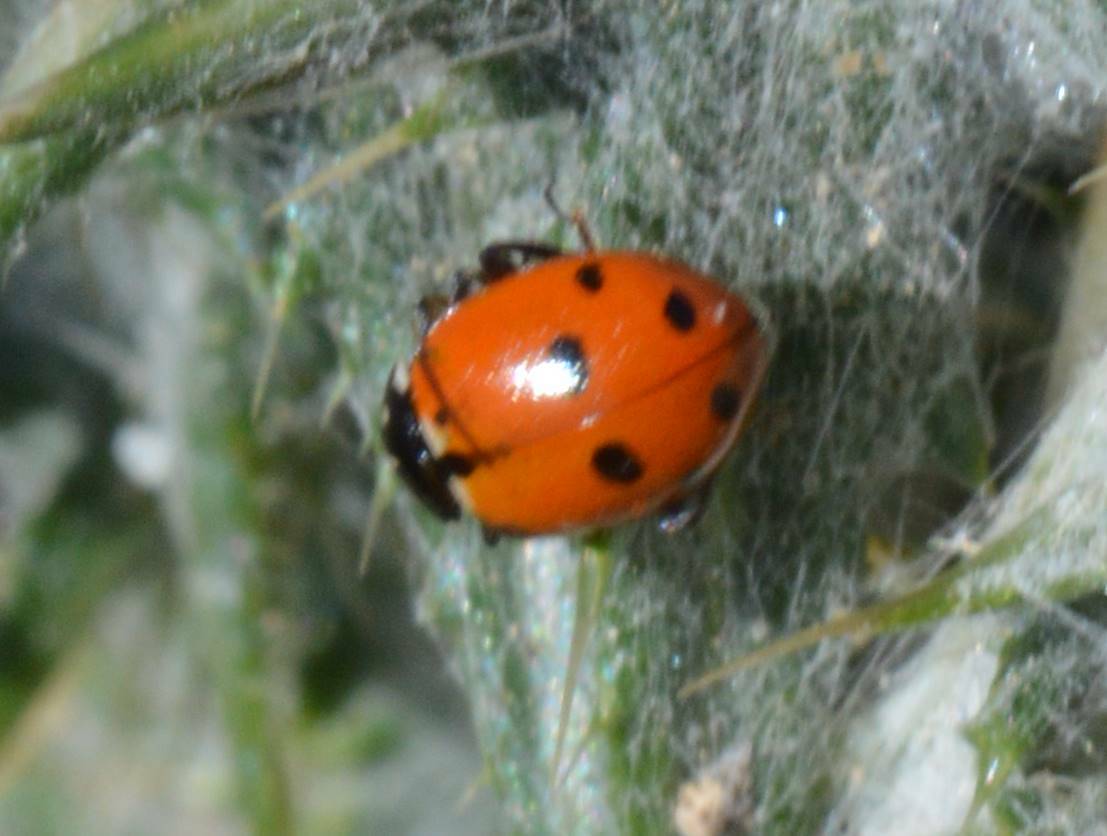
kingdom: Animalia
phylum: Arthropoda
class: Insecta
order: Coleoptera
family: Coccinellidae
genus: Hippodamia
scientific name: Hippodamia variegata
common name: Ladybird beetle
